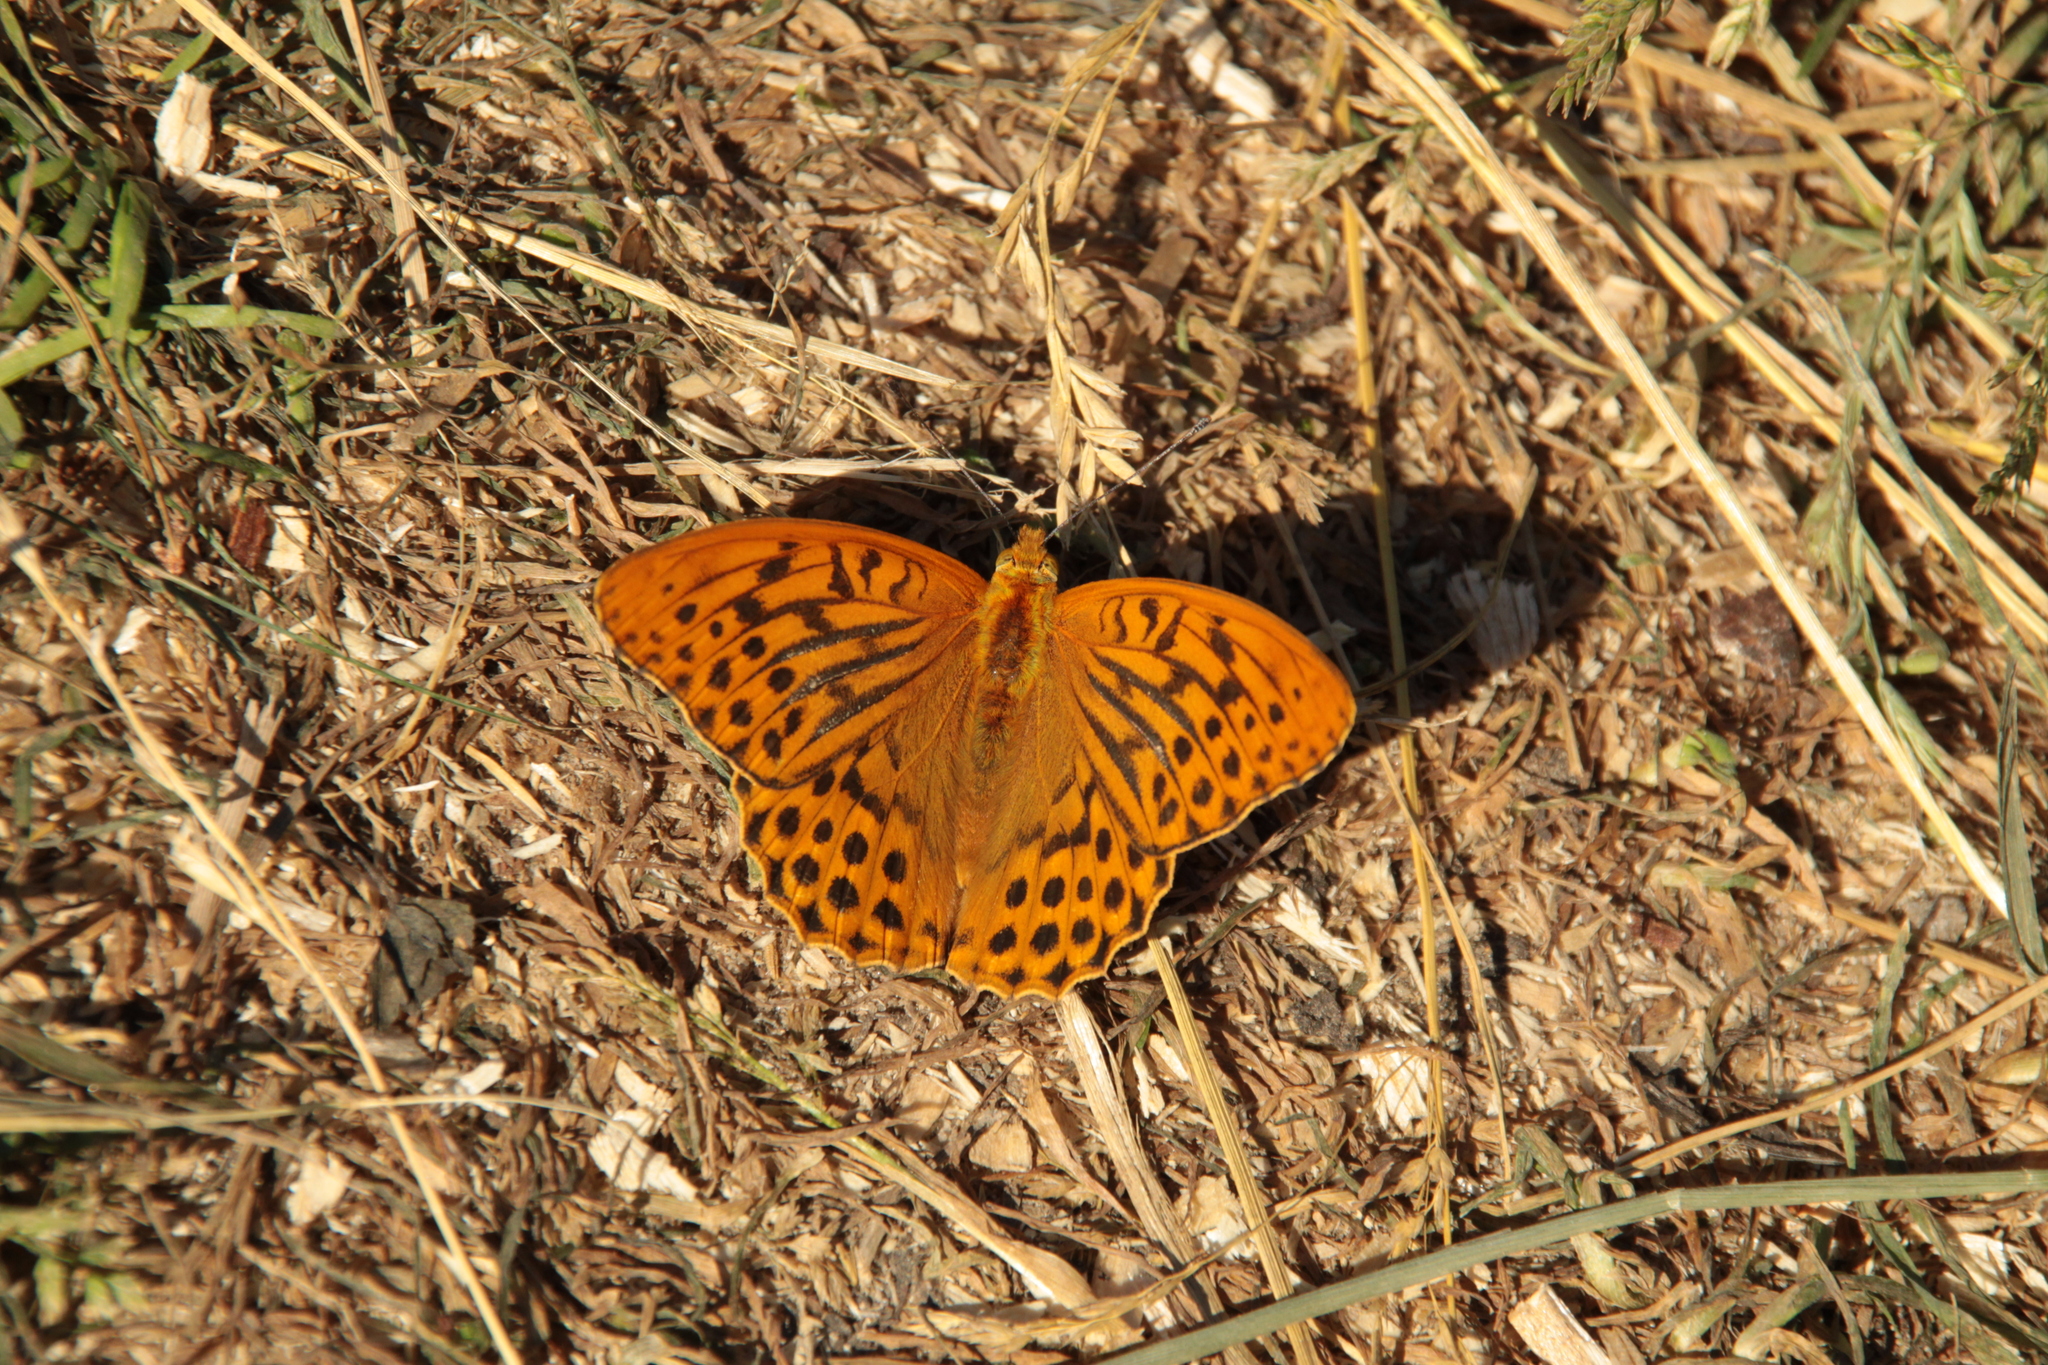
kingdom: Animalia
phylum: Arthropoda
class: Insecta
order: Lepidoptera
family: Nymphalidae
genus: Argynnis
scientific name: Argynnis paphia
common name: Silver-washed fritillary
